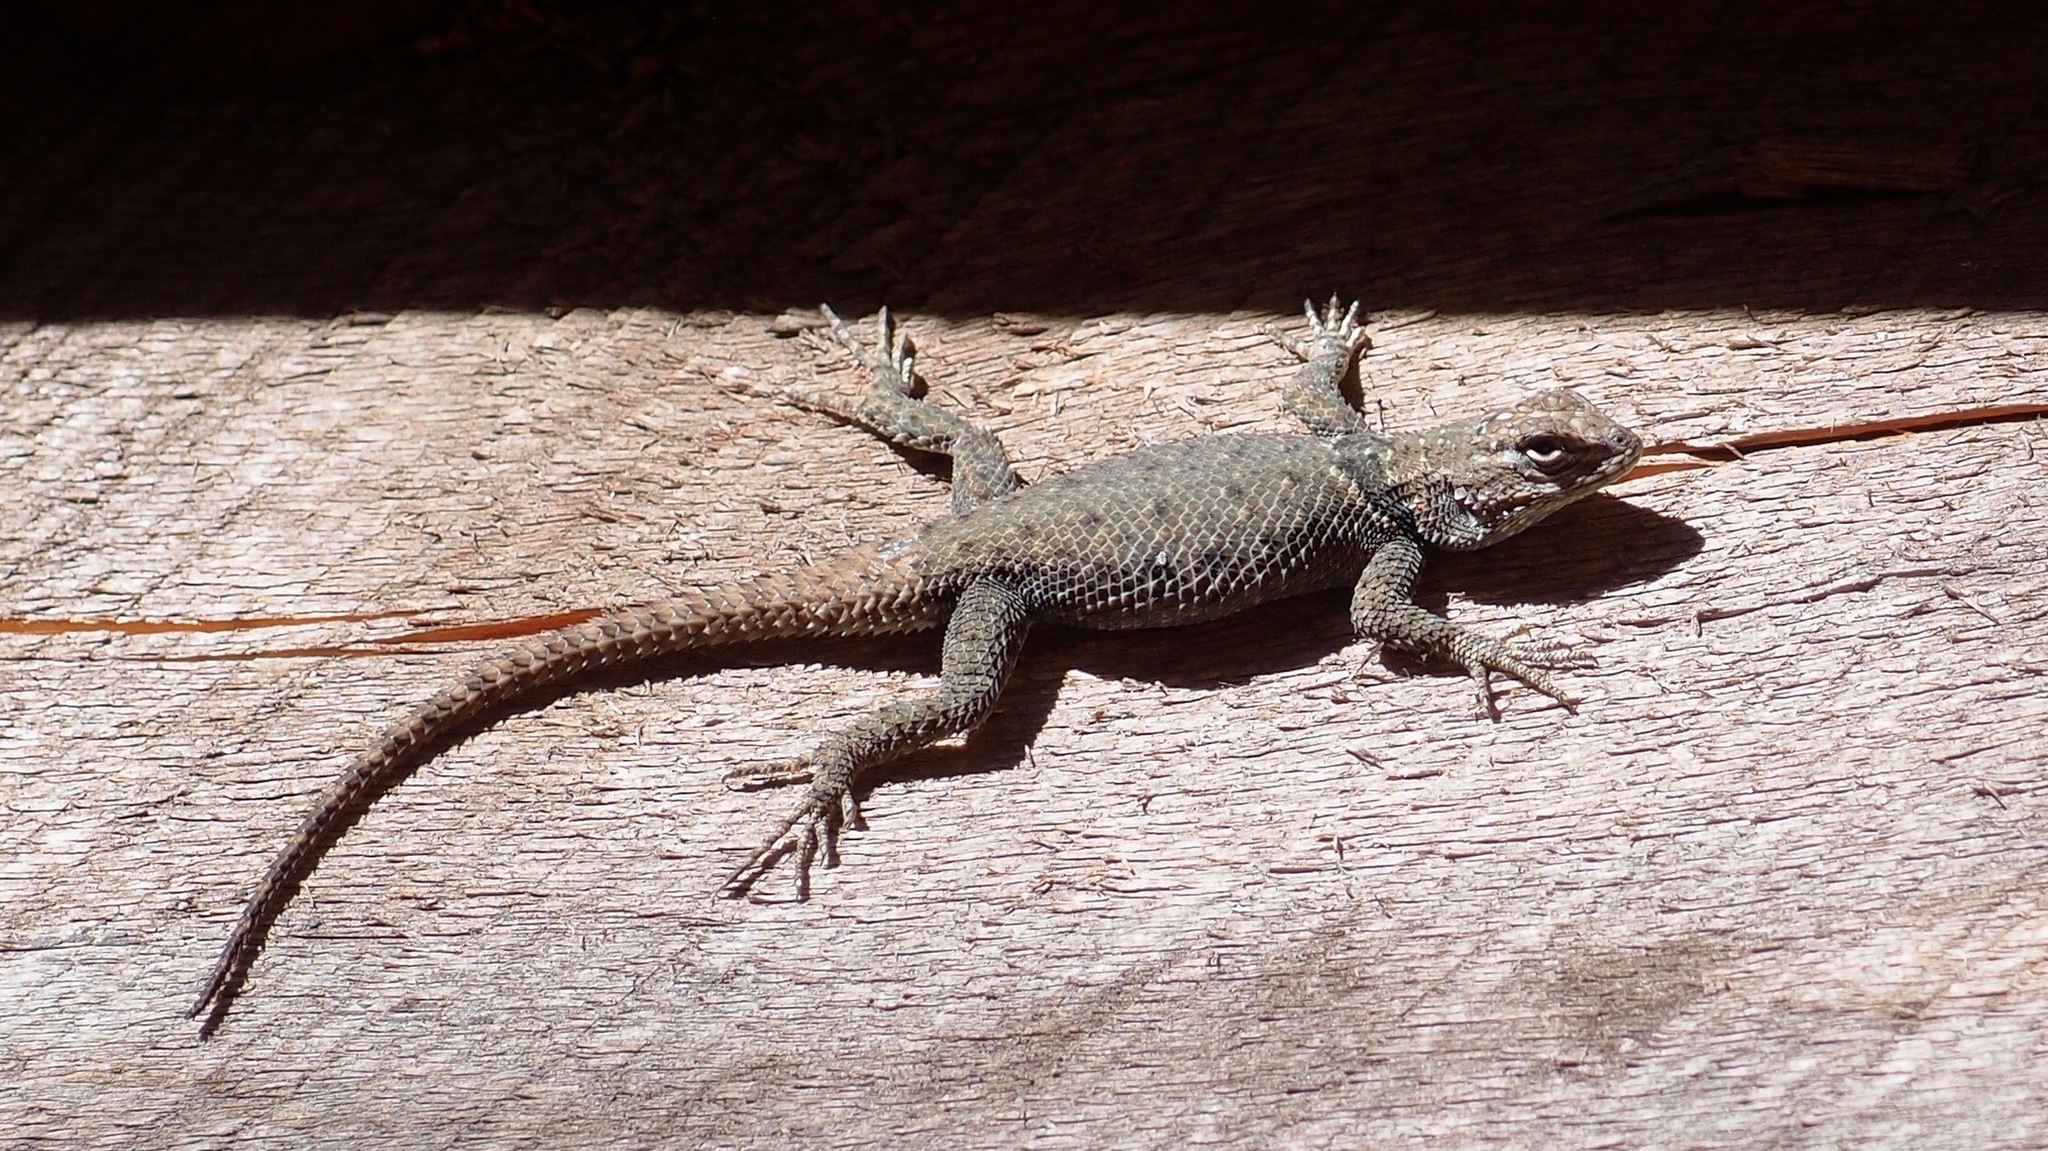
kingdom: Animalia
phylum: Chordata
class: Squamata
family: Phrynosomatidae
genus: Sceloporus
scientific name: Sceloporus jarrovii
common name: Yarrow's spiny lizard
